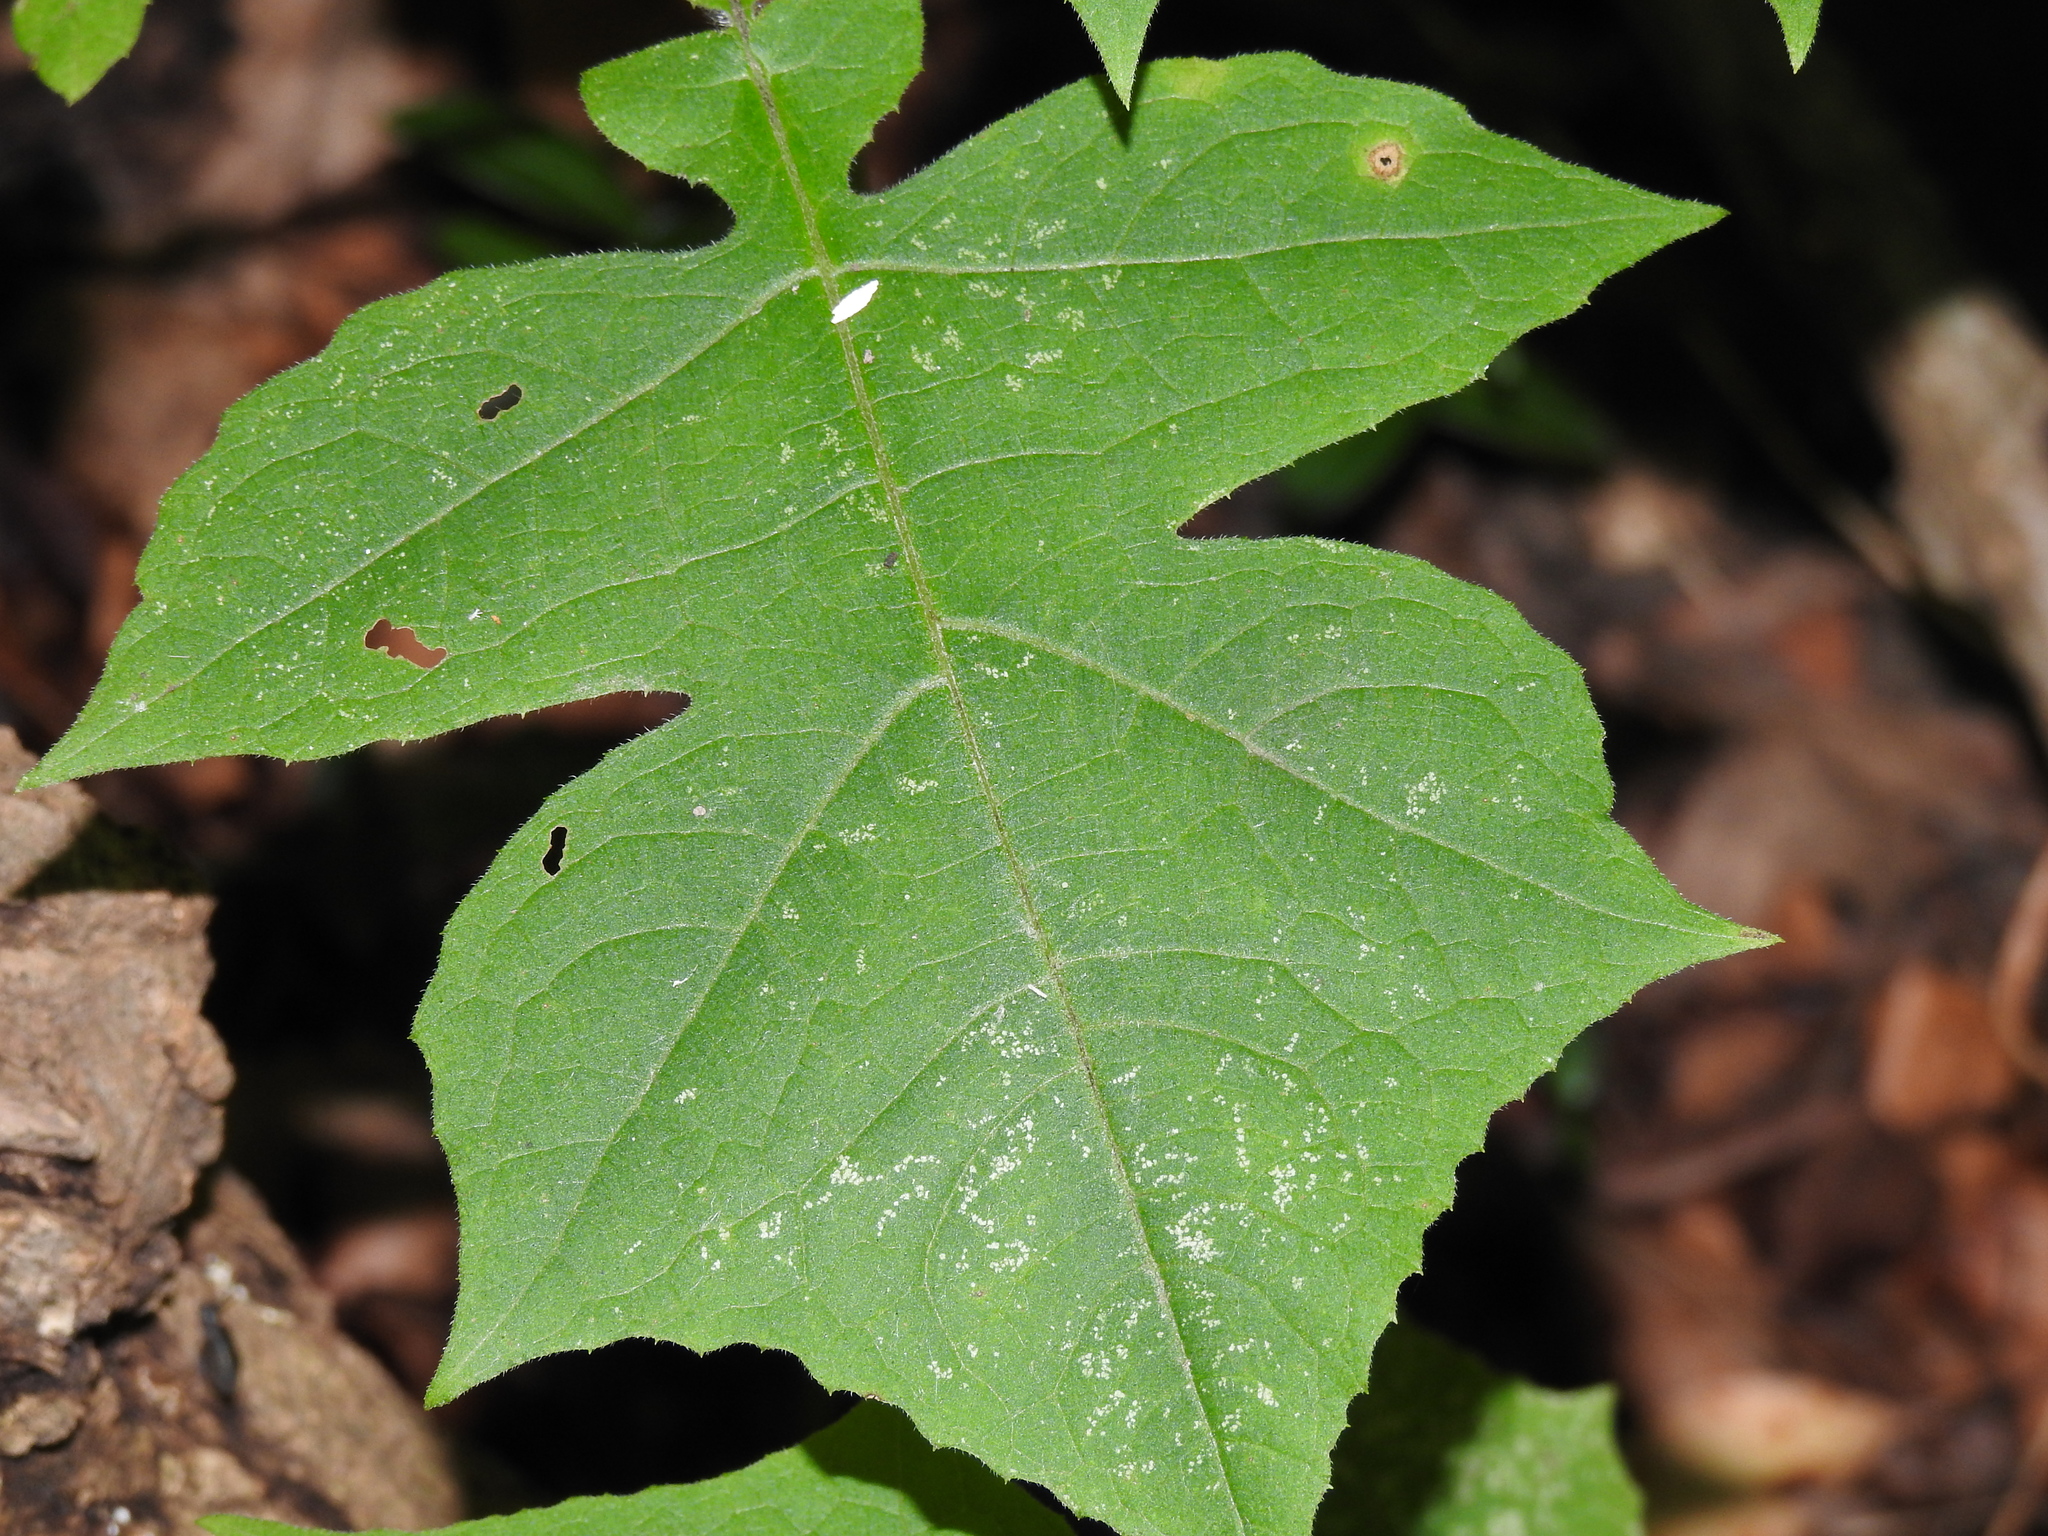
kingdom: Plantae
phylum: Tracheophyta
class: Magnoliopsida
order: Asterales
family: Asteraceae
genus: Polymnia
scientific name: Polymnia canadensis
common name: Pale-flowered leafcup
